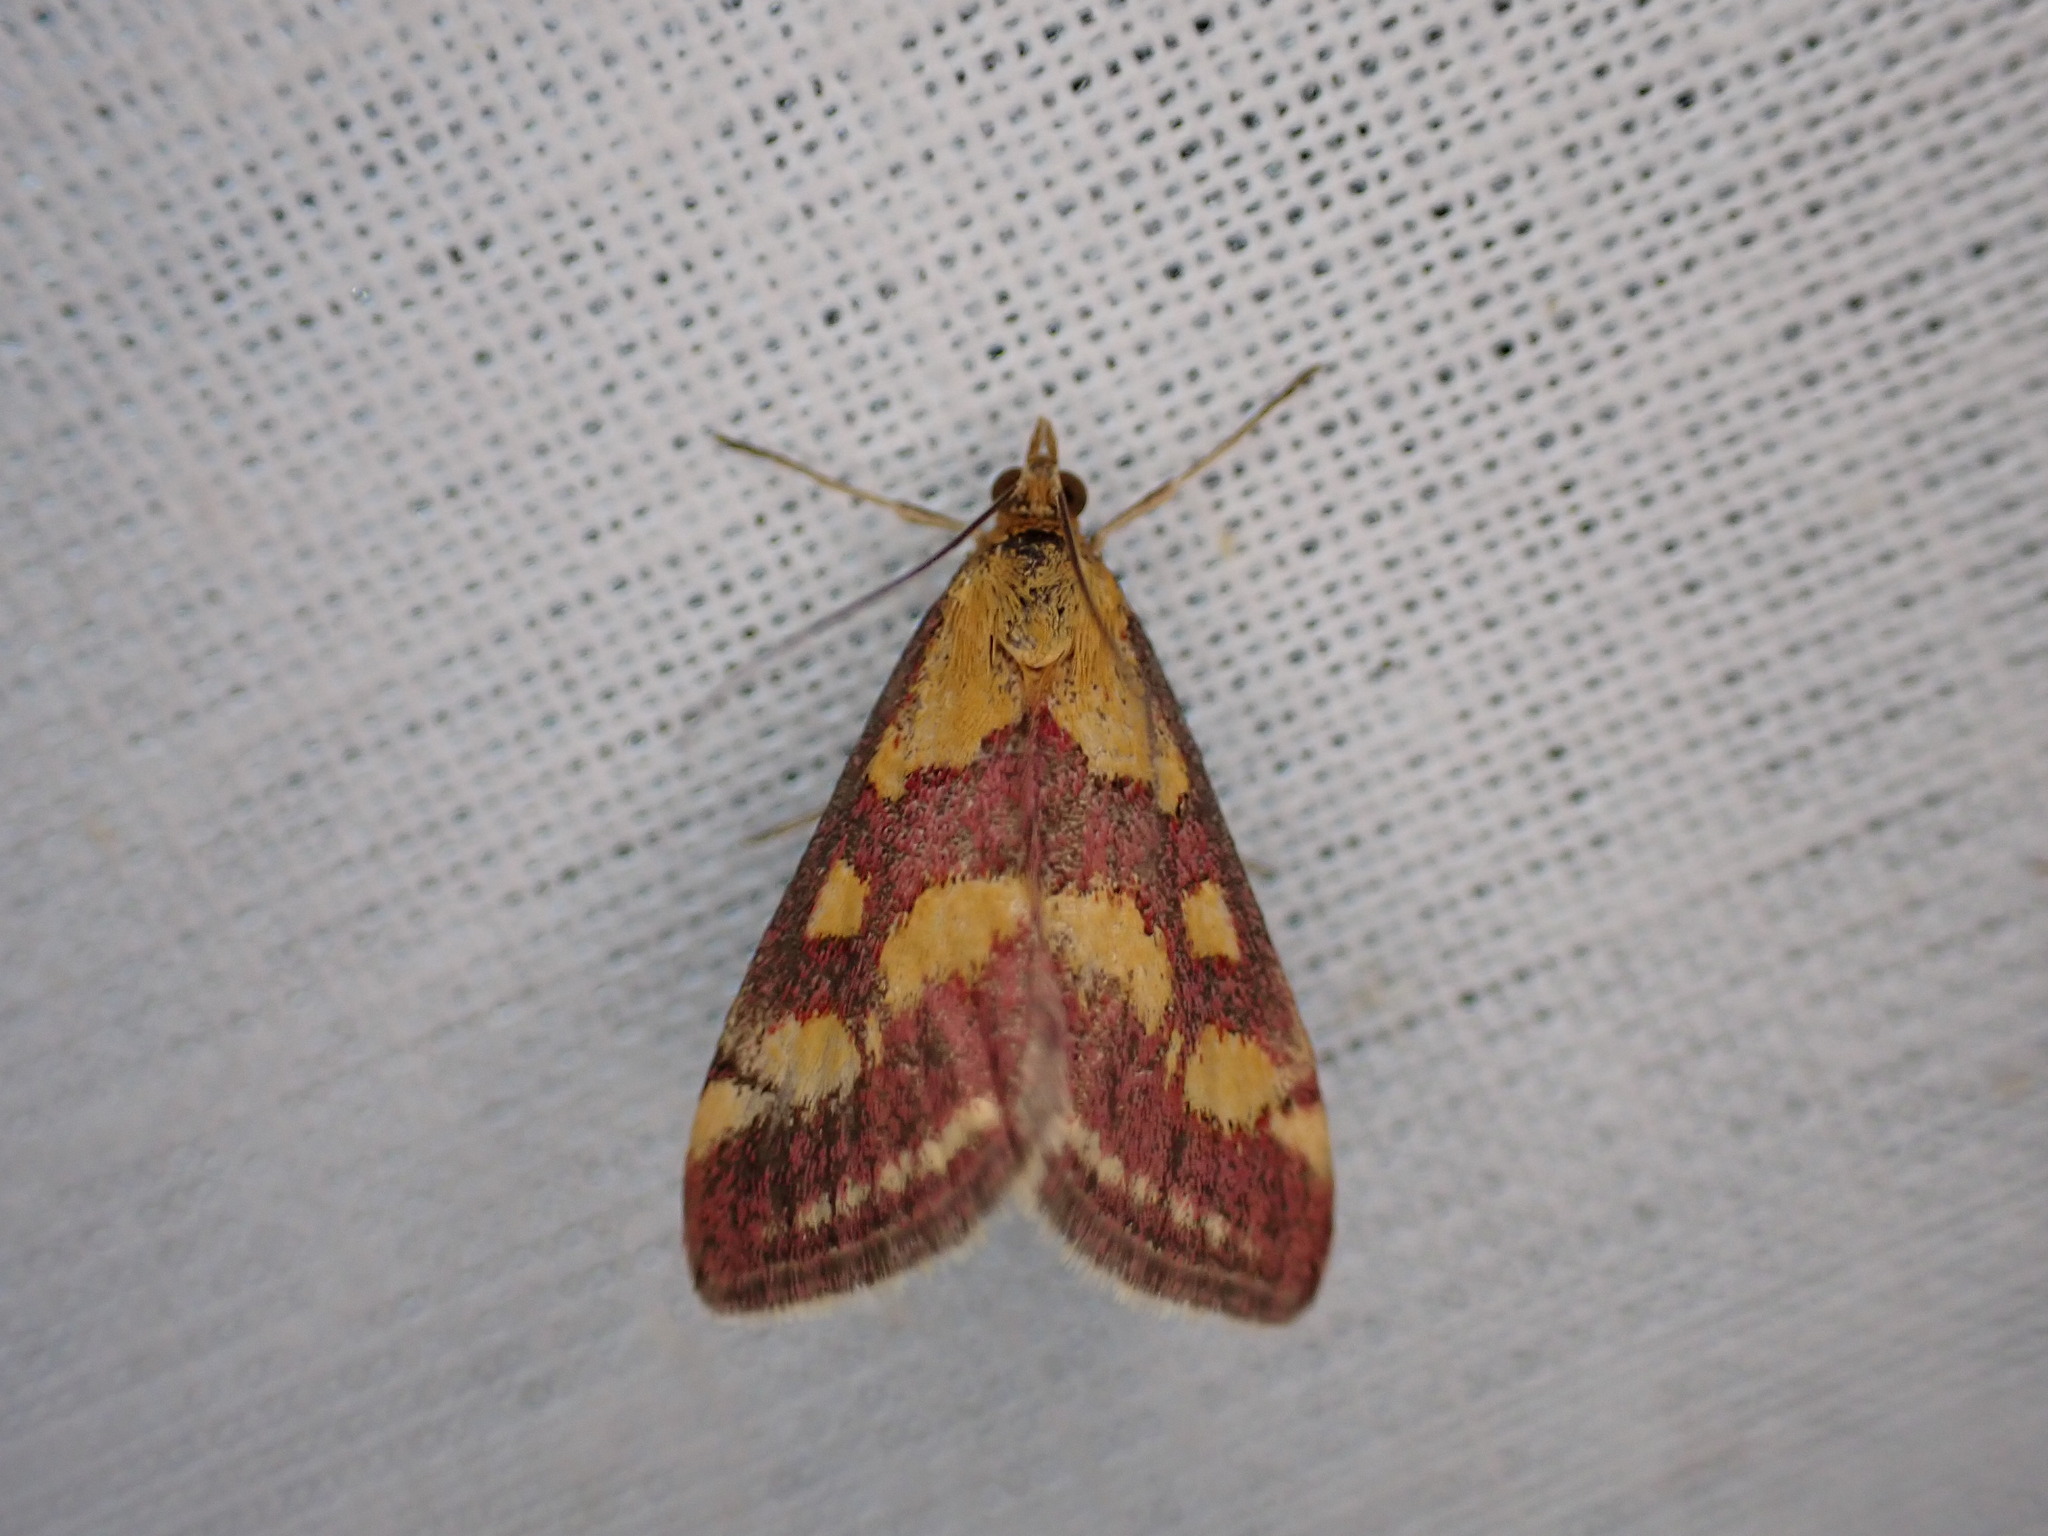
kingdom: Animalia
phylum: Arthropoda
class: Insecta
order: Lepidoptera
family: Crambidae
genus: Pyrausta
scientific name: Pyrausta purpuralis
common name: Common purple & gold
